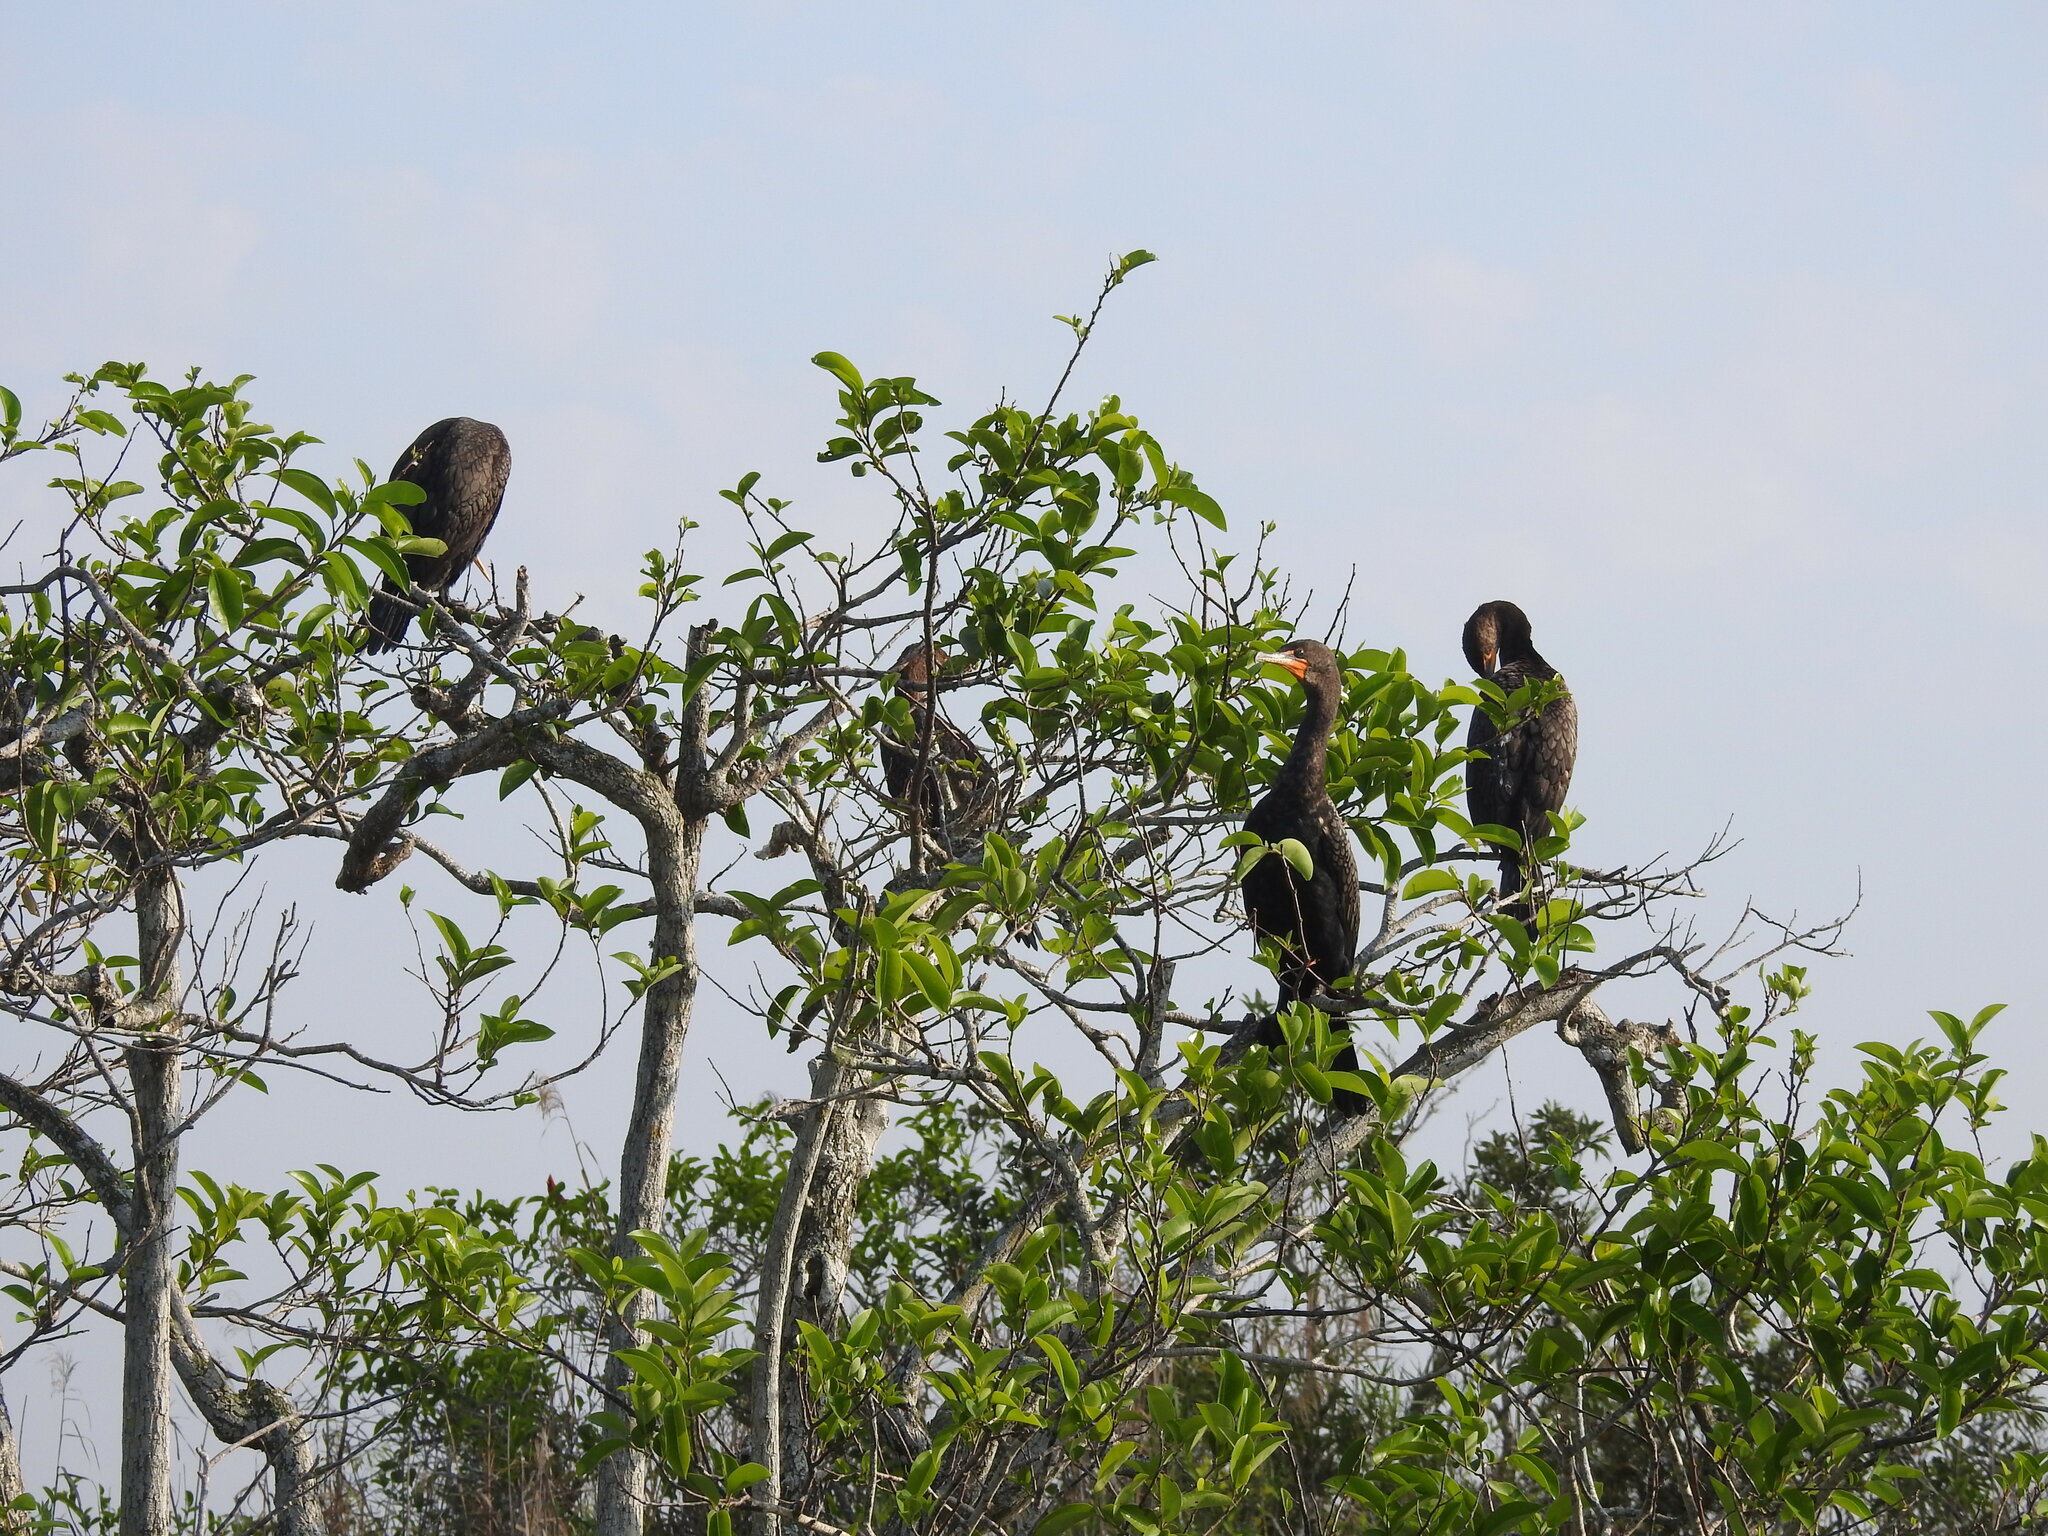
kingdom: Animalia
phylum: Chordata
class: Aves
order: Suliformes
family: Phalacrocoracidae
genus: Phalacrocorax
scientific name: Phalacrocorax auritus
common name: Double-crested cormorant
